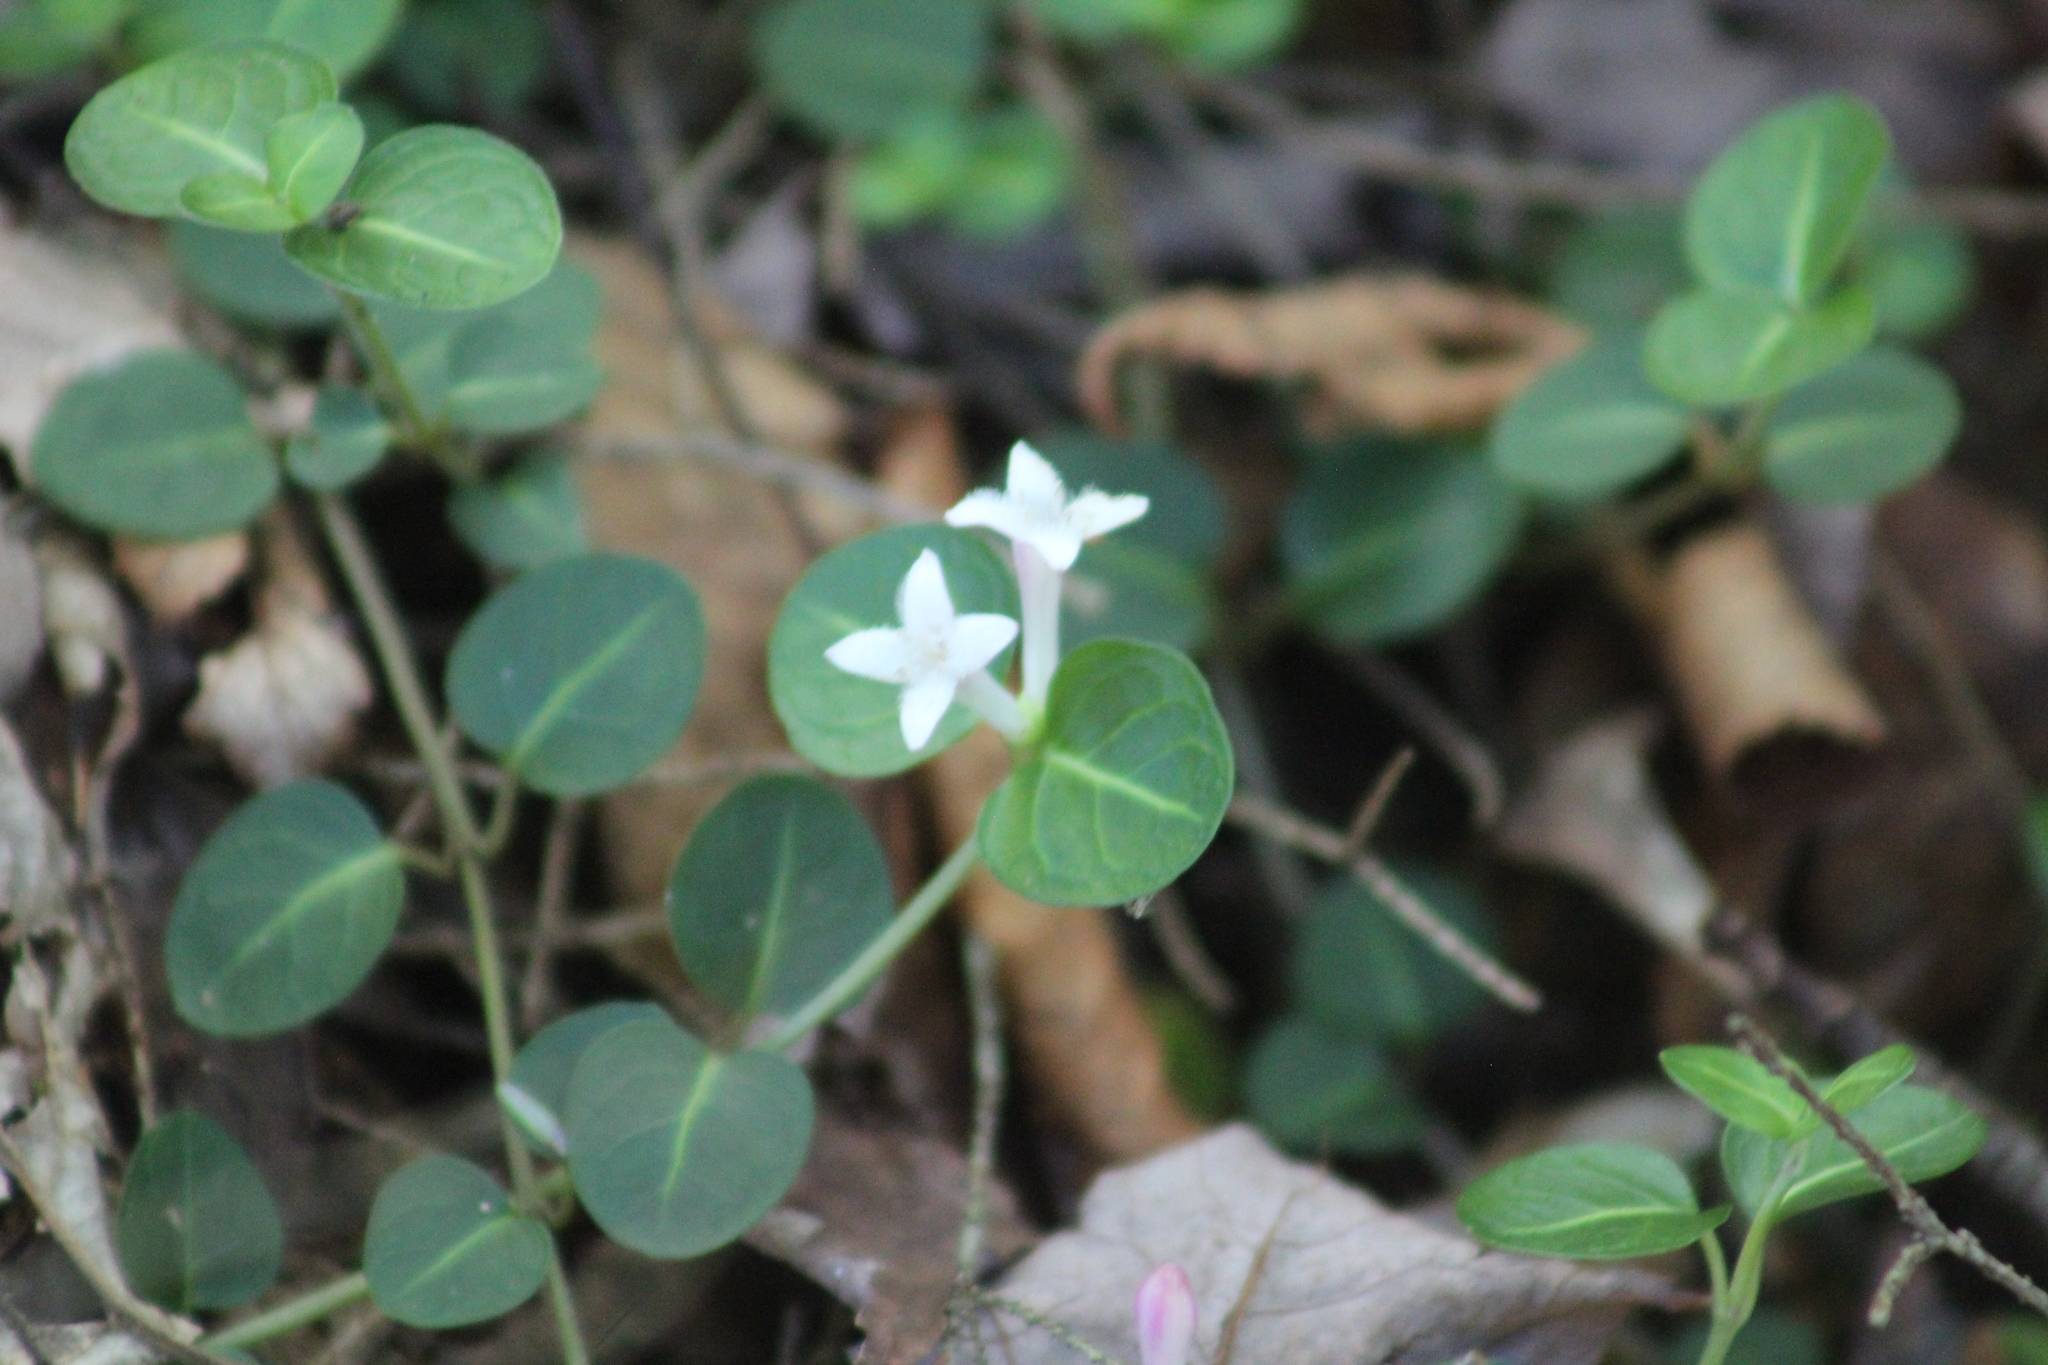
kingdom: Plantae
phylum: Tracheophyta
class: Magnoliopsida
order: Gentianales
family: Rubiaceae
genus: Mitchella
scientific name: Mitchella repens
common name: Partridge-berry
